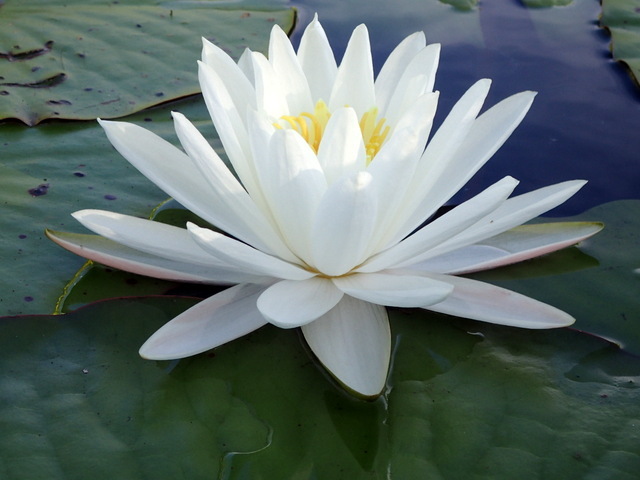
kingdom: Plantae
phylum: Tracheophyta
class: Magnoliopsida
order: Nymphaeales
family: Nymphaeaceae
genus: Nymphaea
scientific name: Nymphaea odorata
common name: Fragrant water-lily
